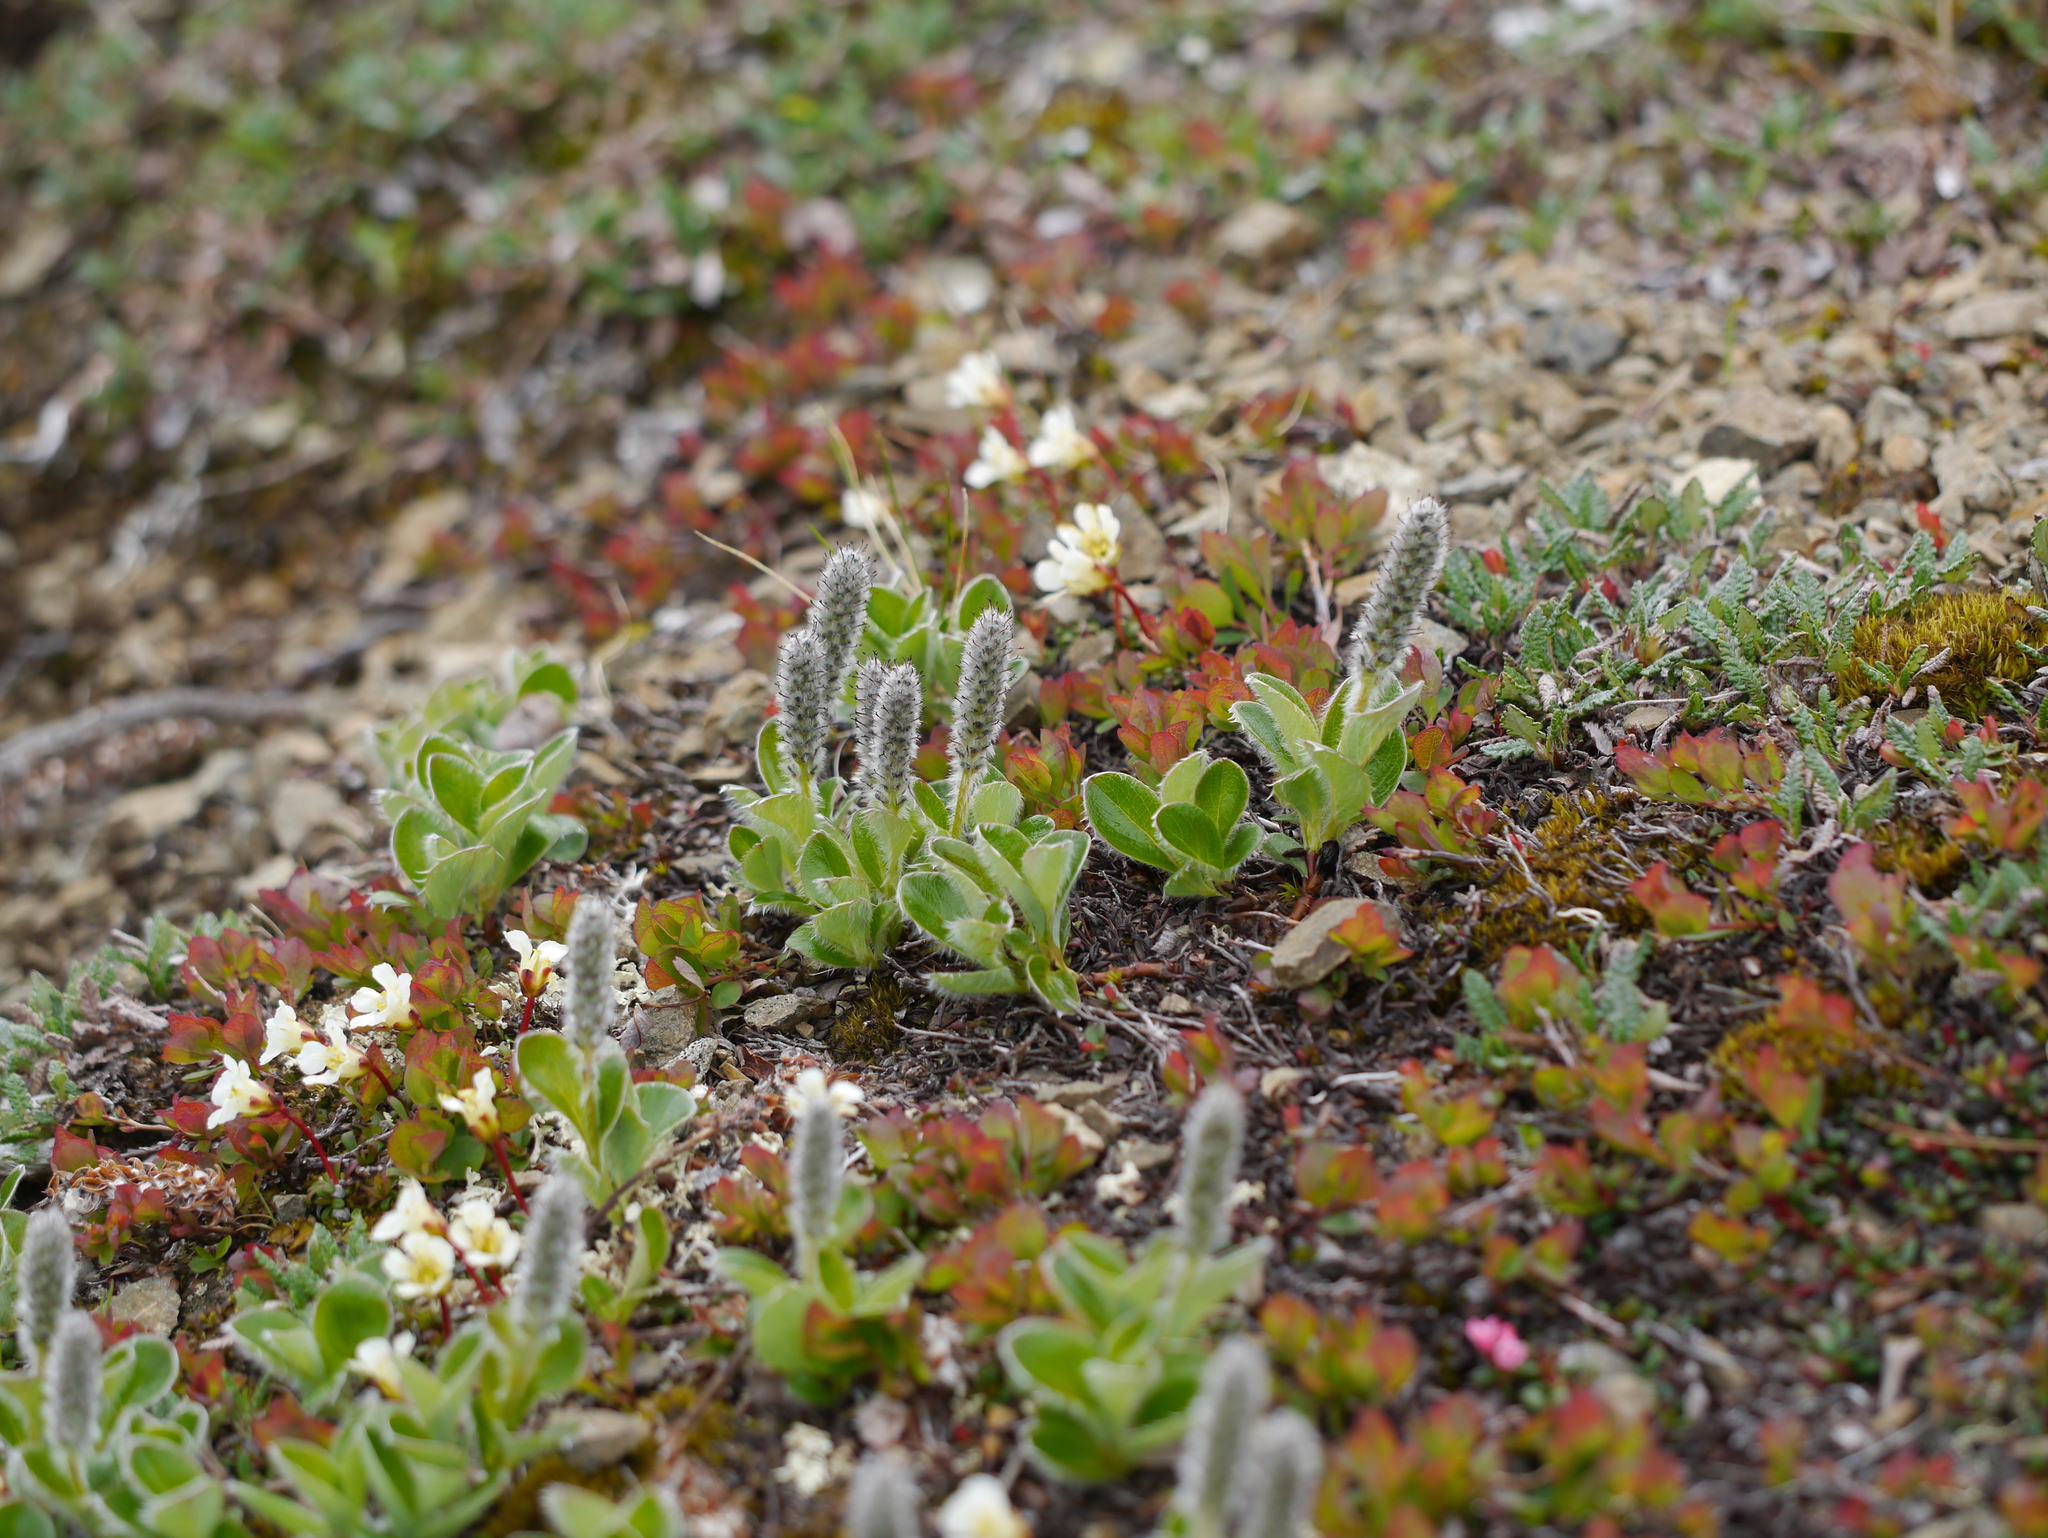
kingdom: Plantae
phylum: Tracheophyta
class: Magnoliopsida
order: Malpighiales
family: Salicaceae
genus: Salix
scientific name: Salix arctica
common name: Arctic willow
